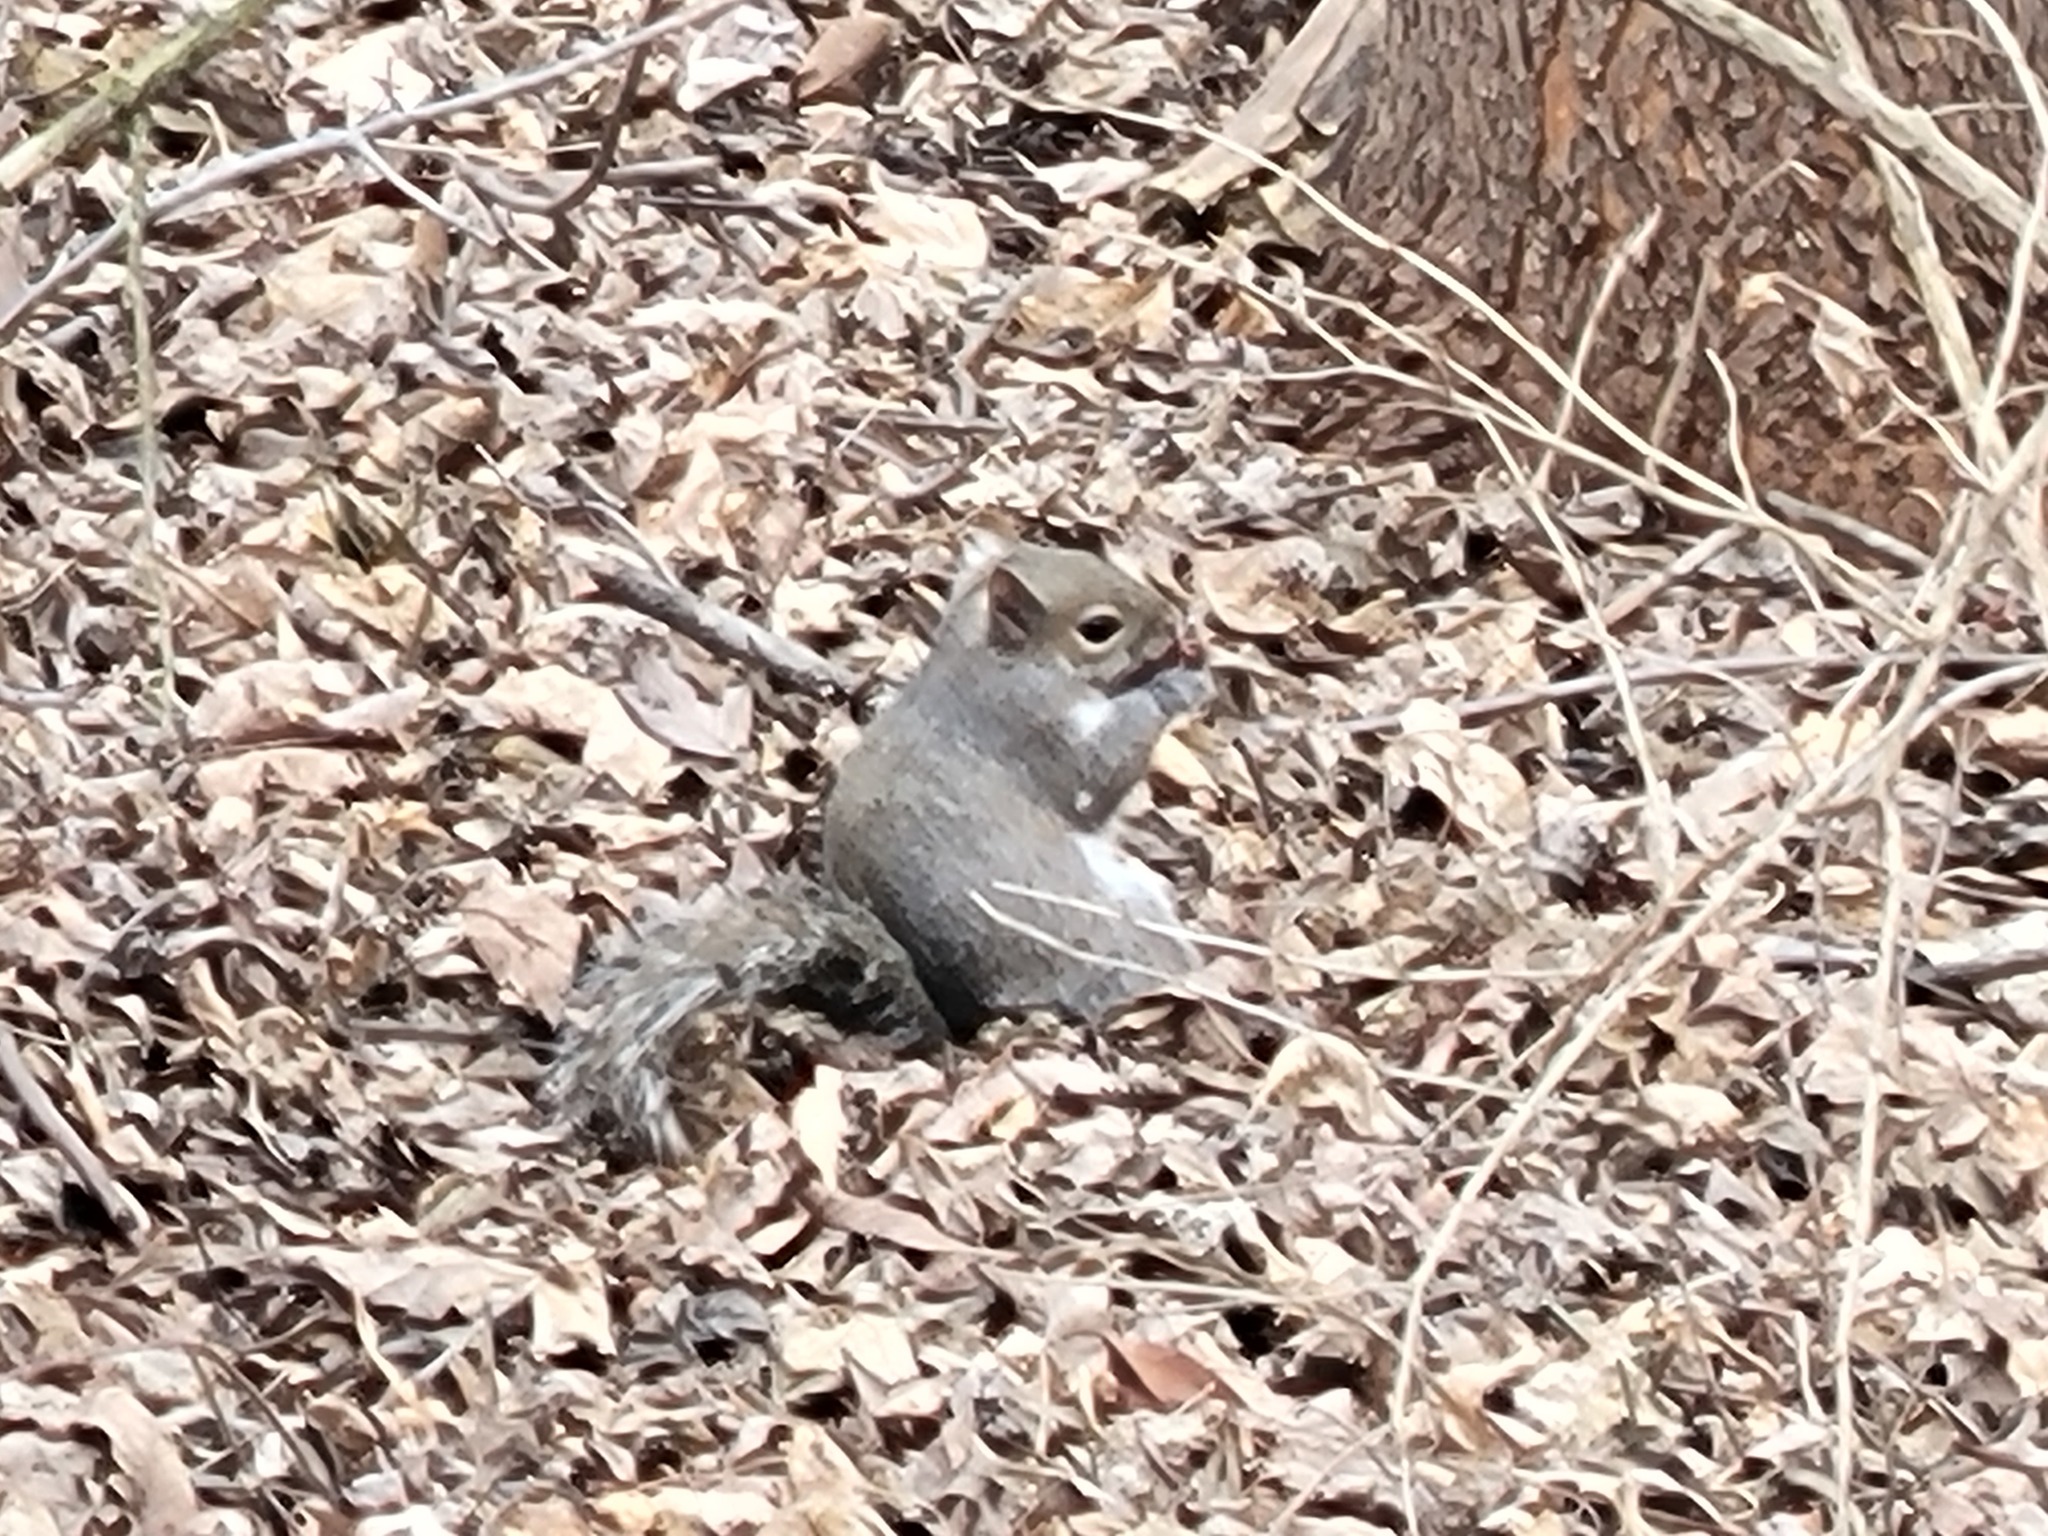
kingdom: Animalia
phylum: Chordata
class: Mammalia
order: Rodentia
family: Sciuridae
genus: Sciurus
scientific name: Sciurus carolinensis
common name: Eastern gray squirrel
